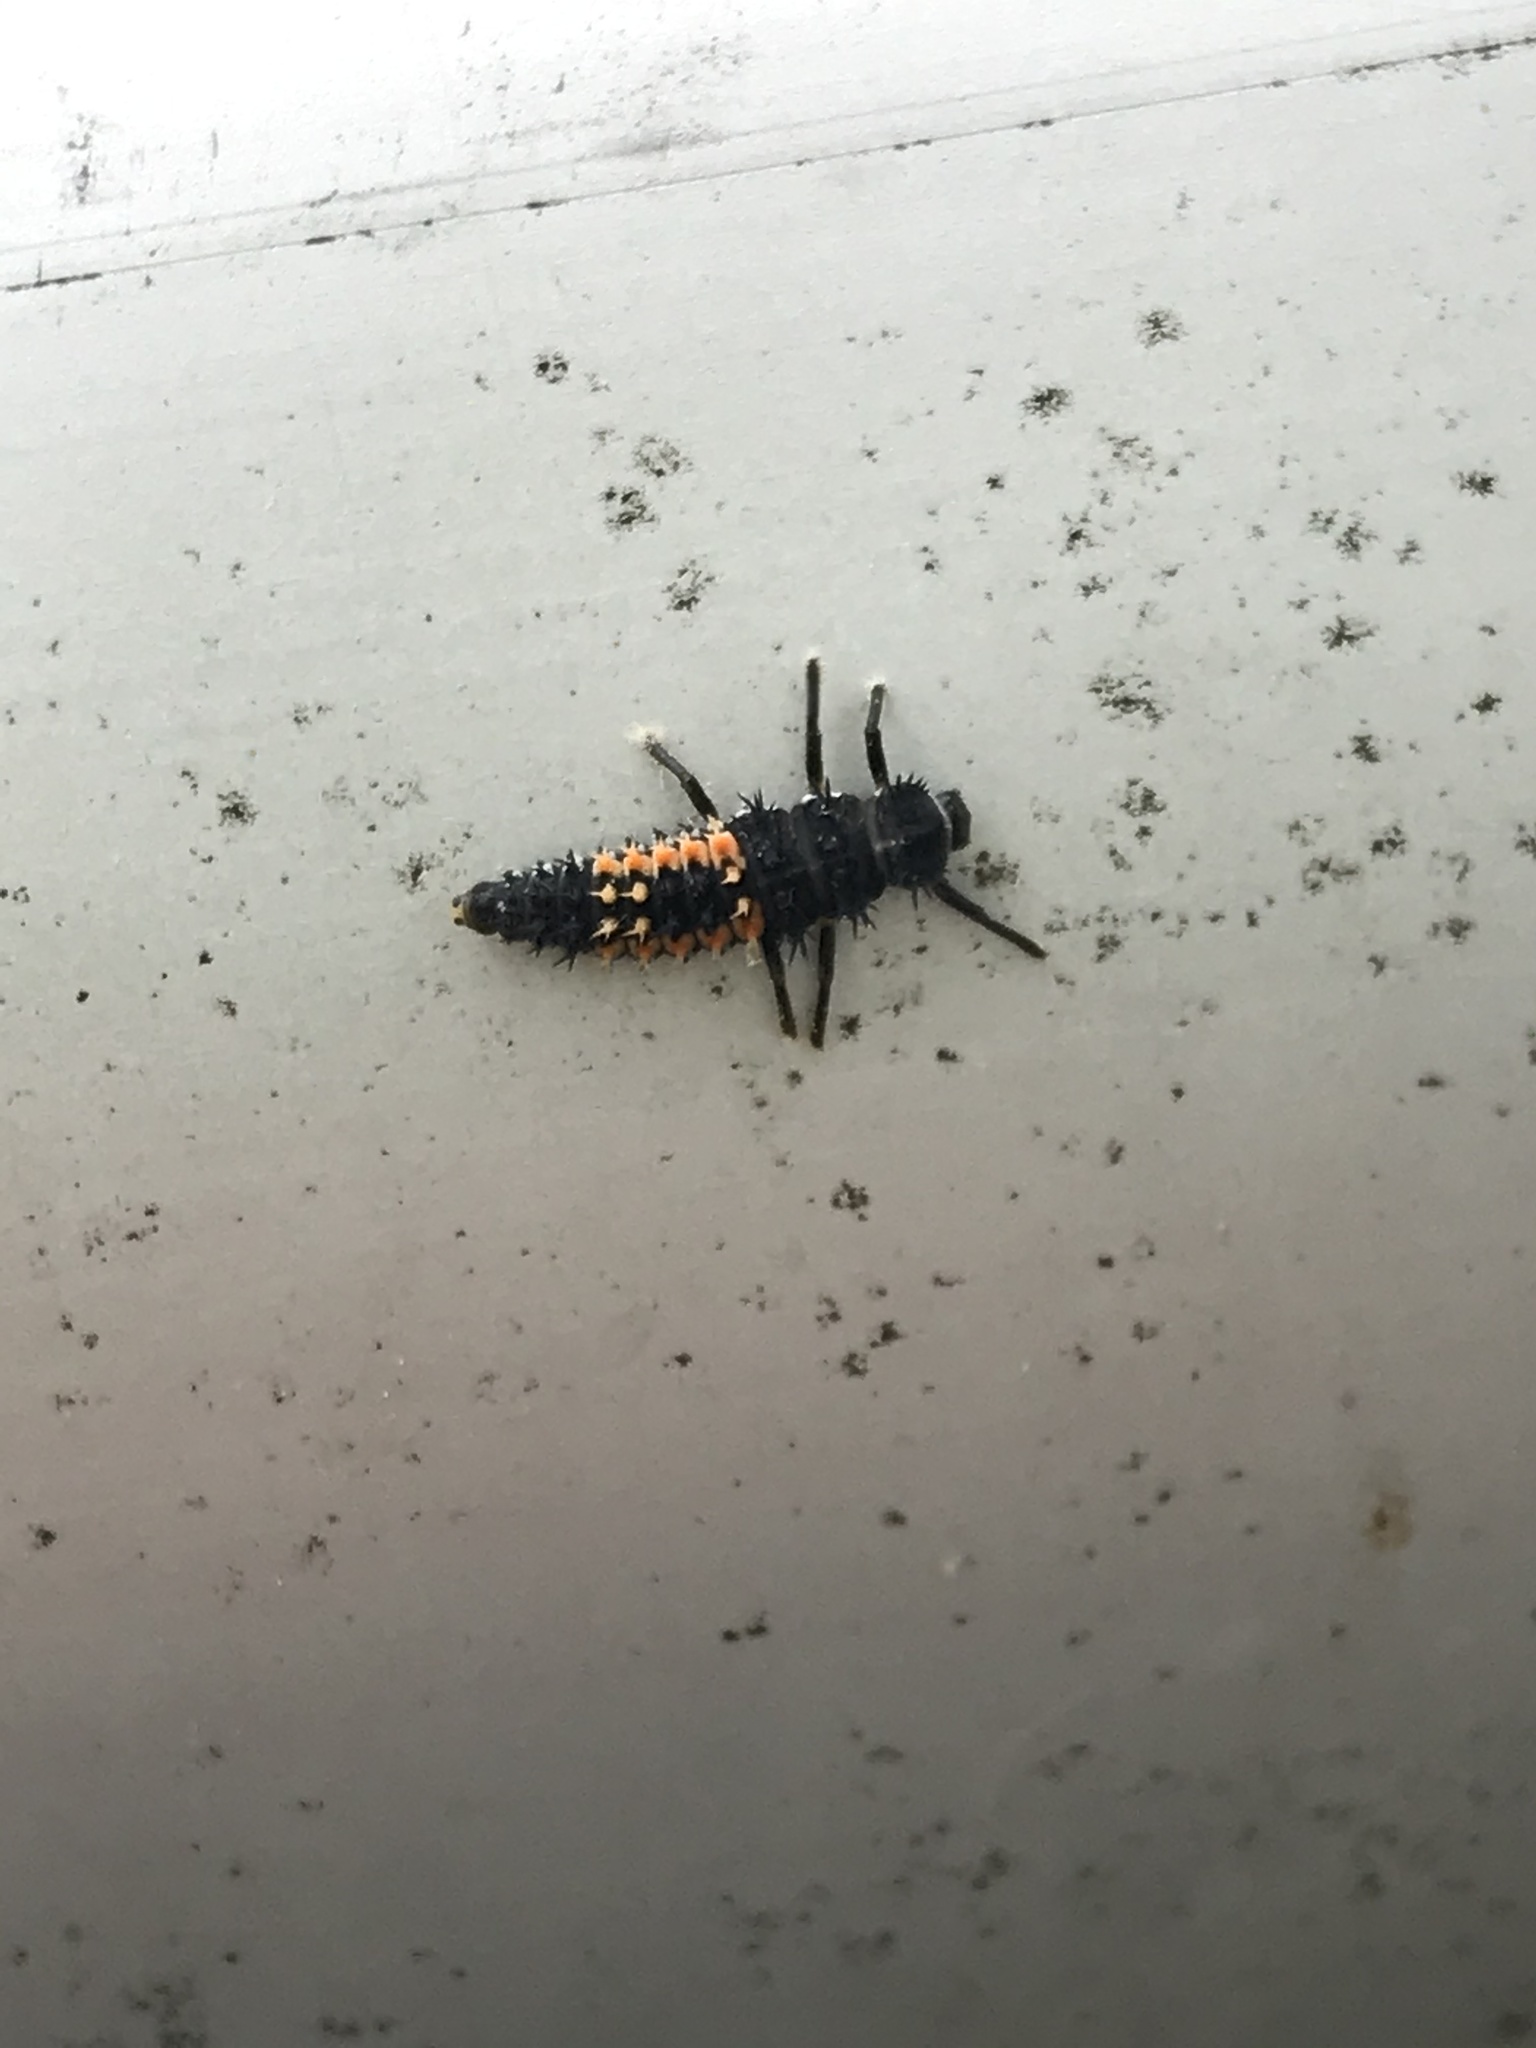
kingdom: Animalia
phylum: Arthropoda
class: Insecta
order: Coleoptera
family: Coccinellidae
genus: Harmonia
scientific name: Harmonia axyridis
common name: Harlequin ladybird
